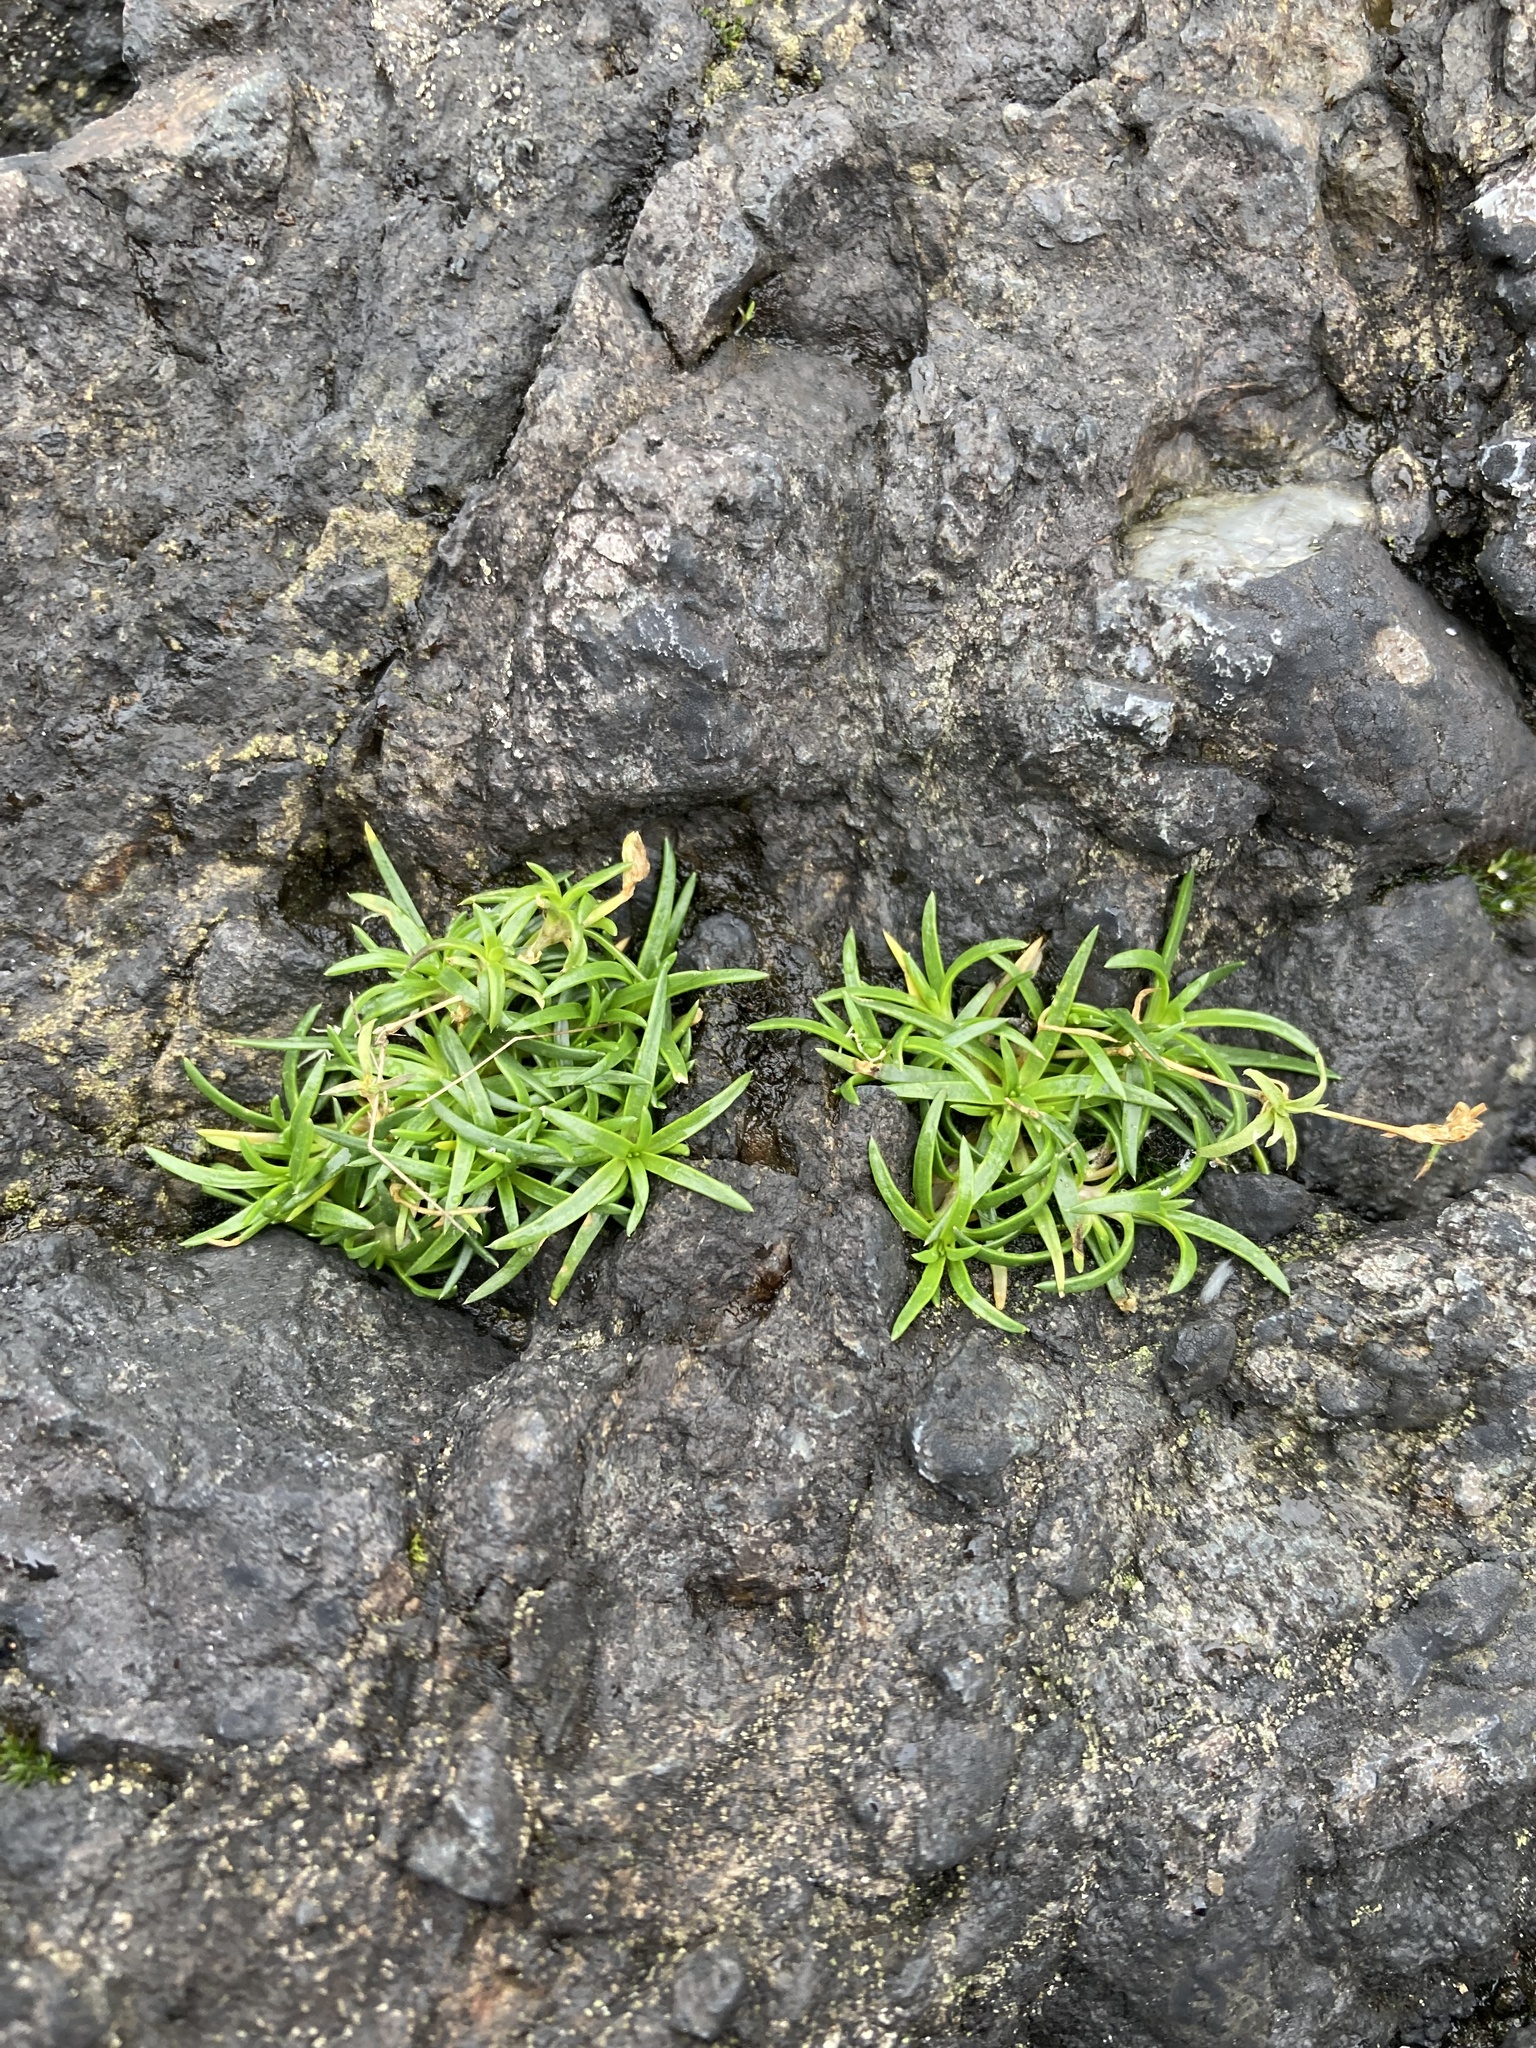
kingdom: Plantae
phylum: Tracheophyta
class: Magnoliopsida
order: Caryophyllales
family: Caryophyllaceae
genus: Sagina
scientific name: Sagina maxima
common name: Coastal pearlwort
